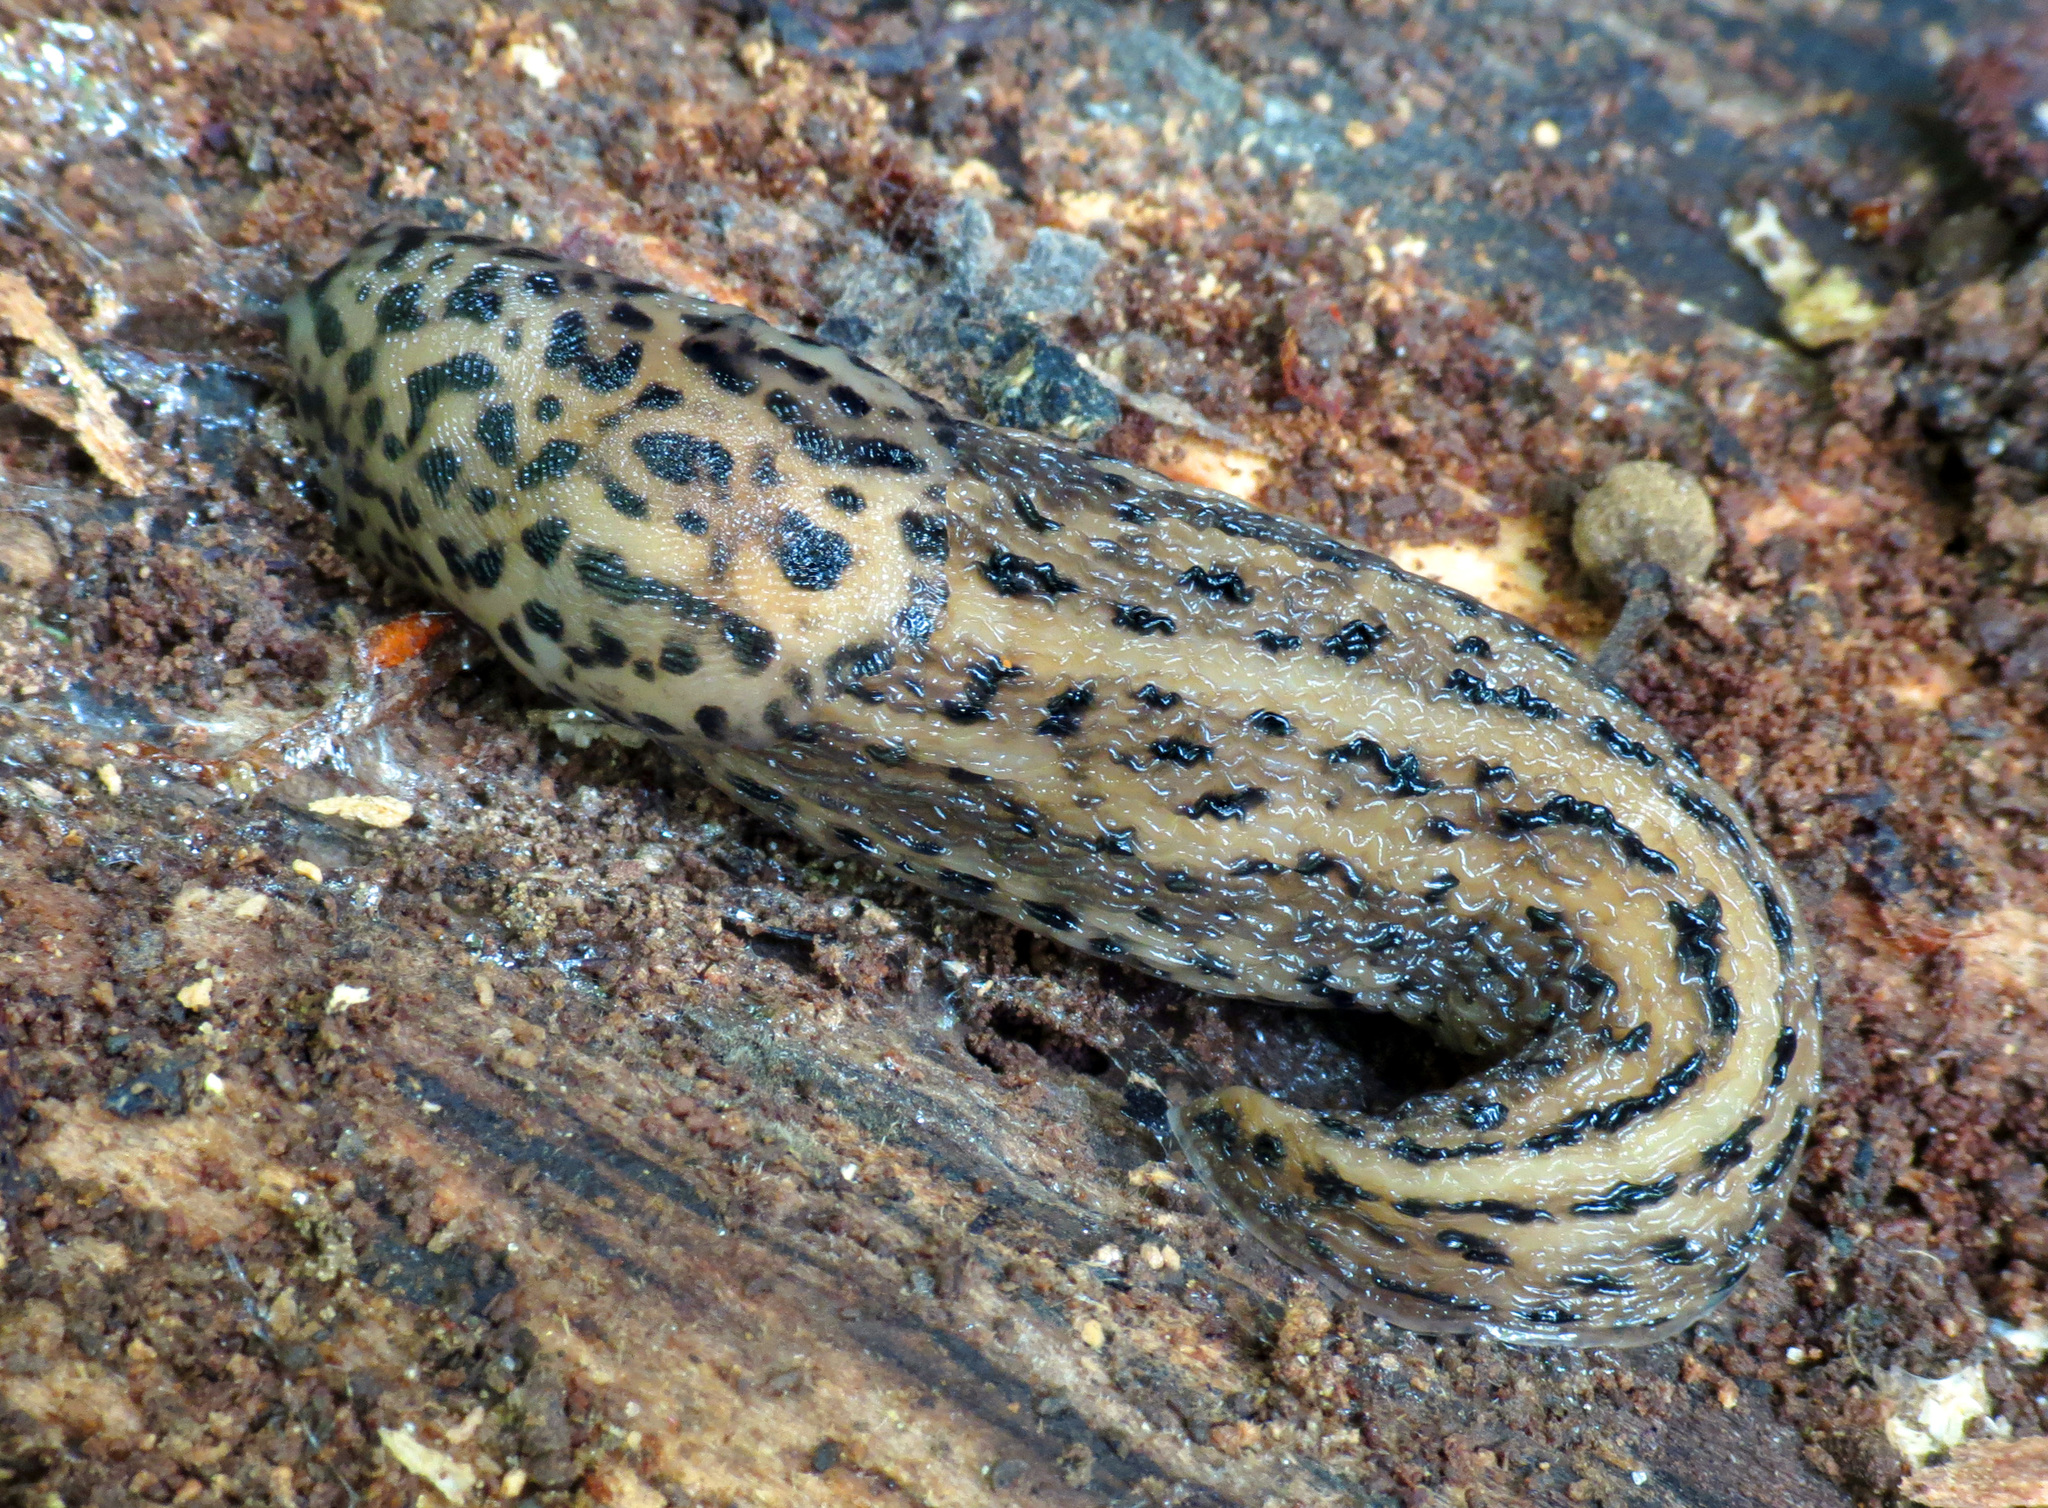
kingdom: Animalia
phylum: Mollusca
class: Gastropoda
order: Stylommatophora
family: Limacidae
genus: Limax
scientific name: Limax maximus
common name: Great grey slug
